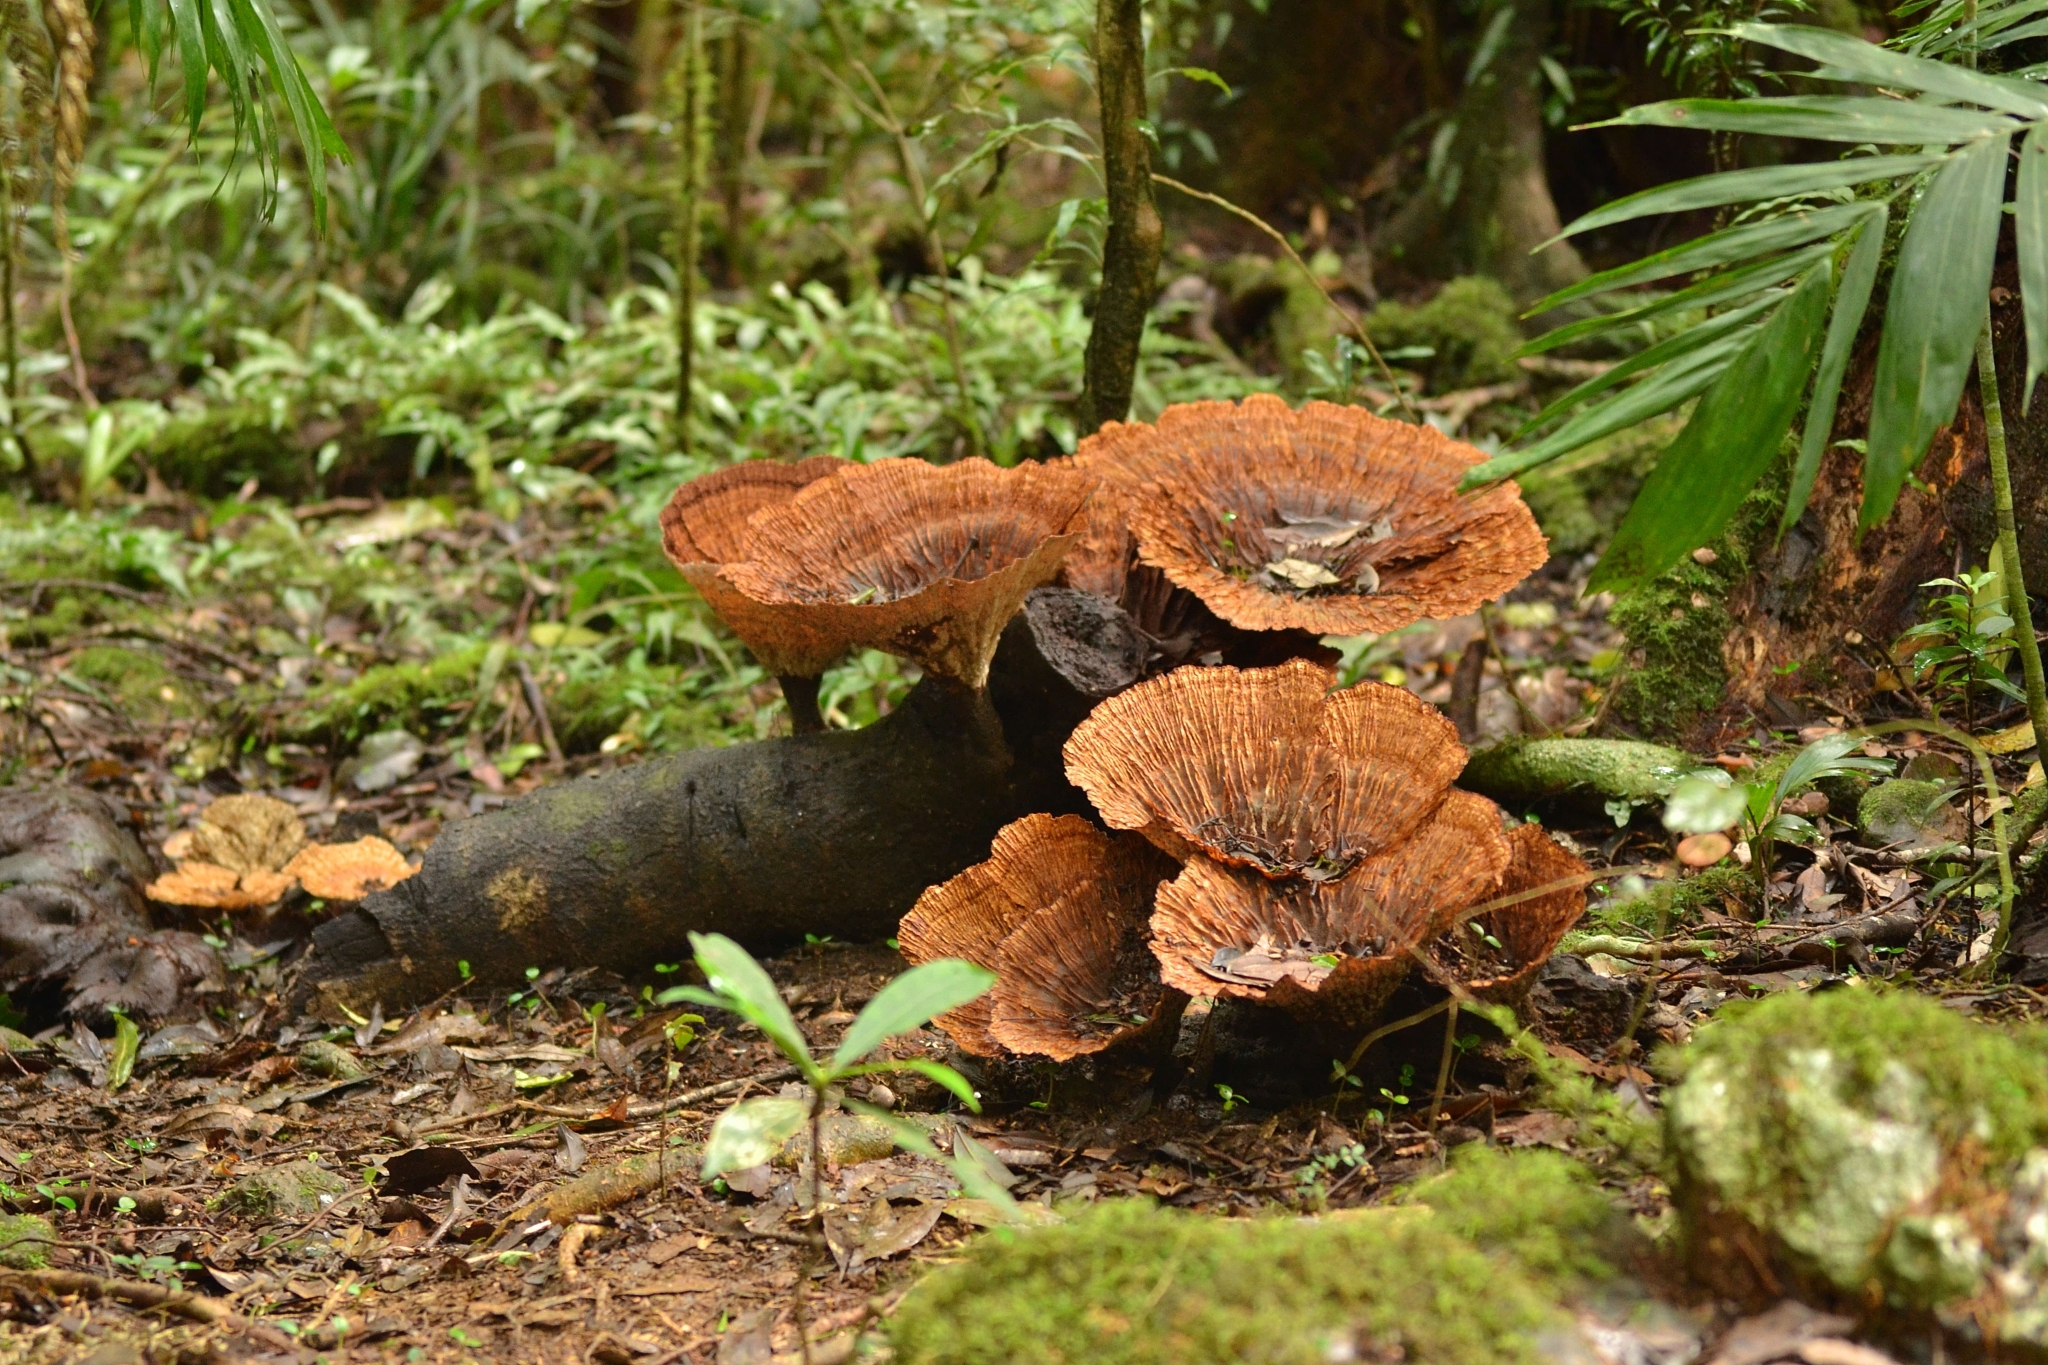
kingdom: Fungi
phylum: Basidiomycota
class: Agaricomycetes
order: Polyporales
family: Panaceae
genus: Cymatoderma
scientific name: Cymatoderma elegans
